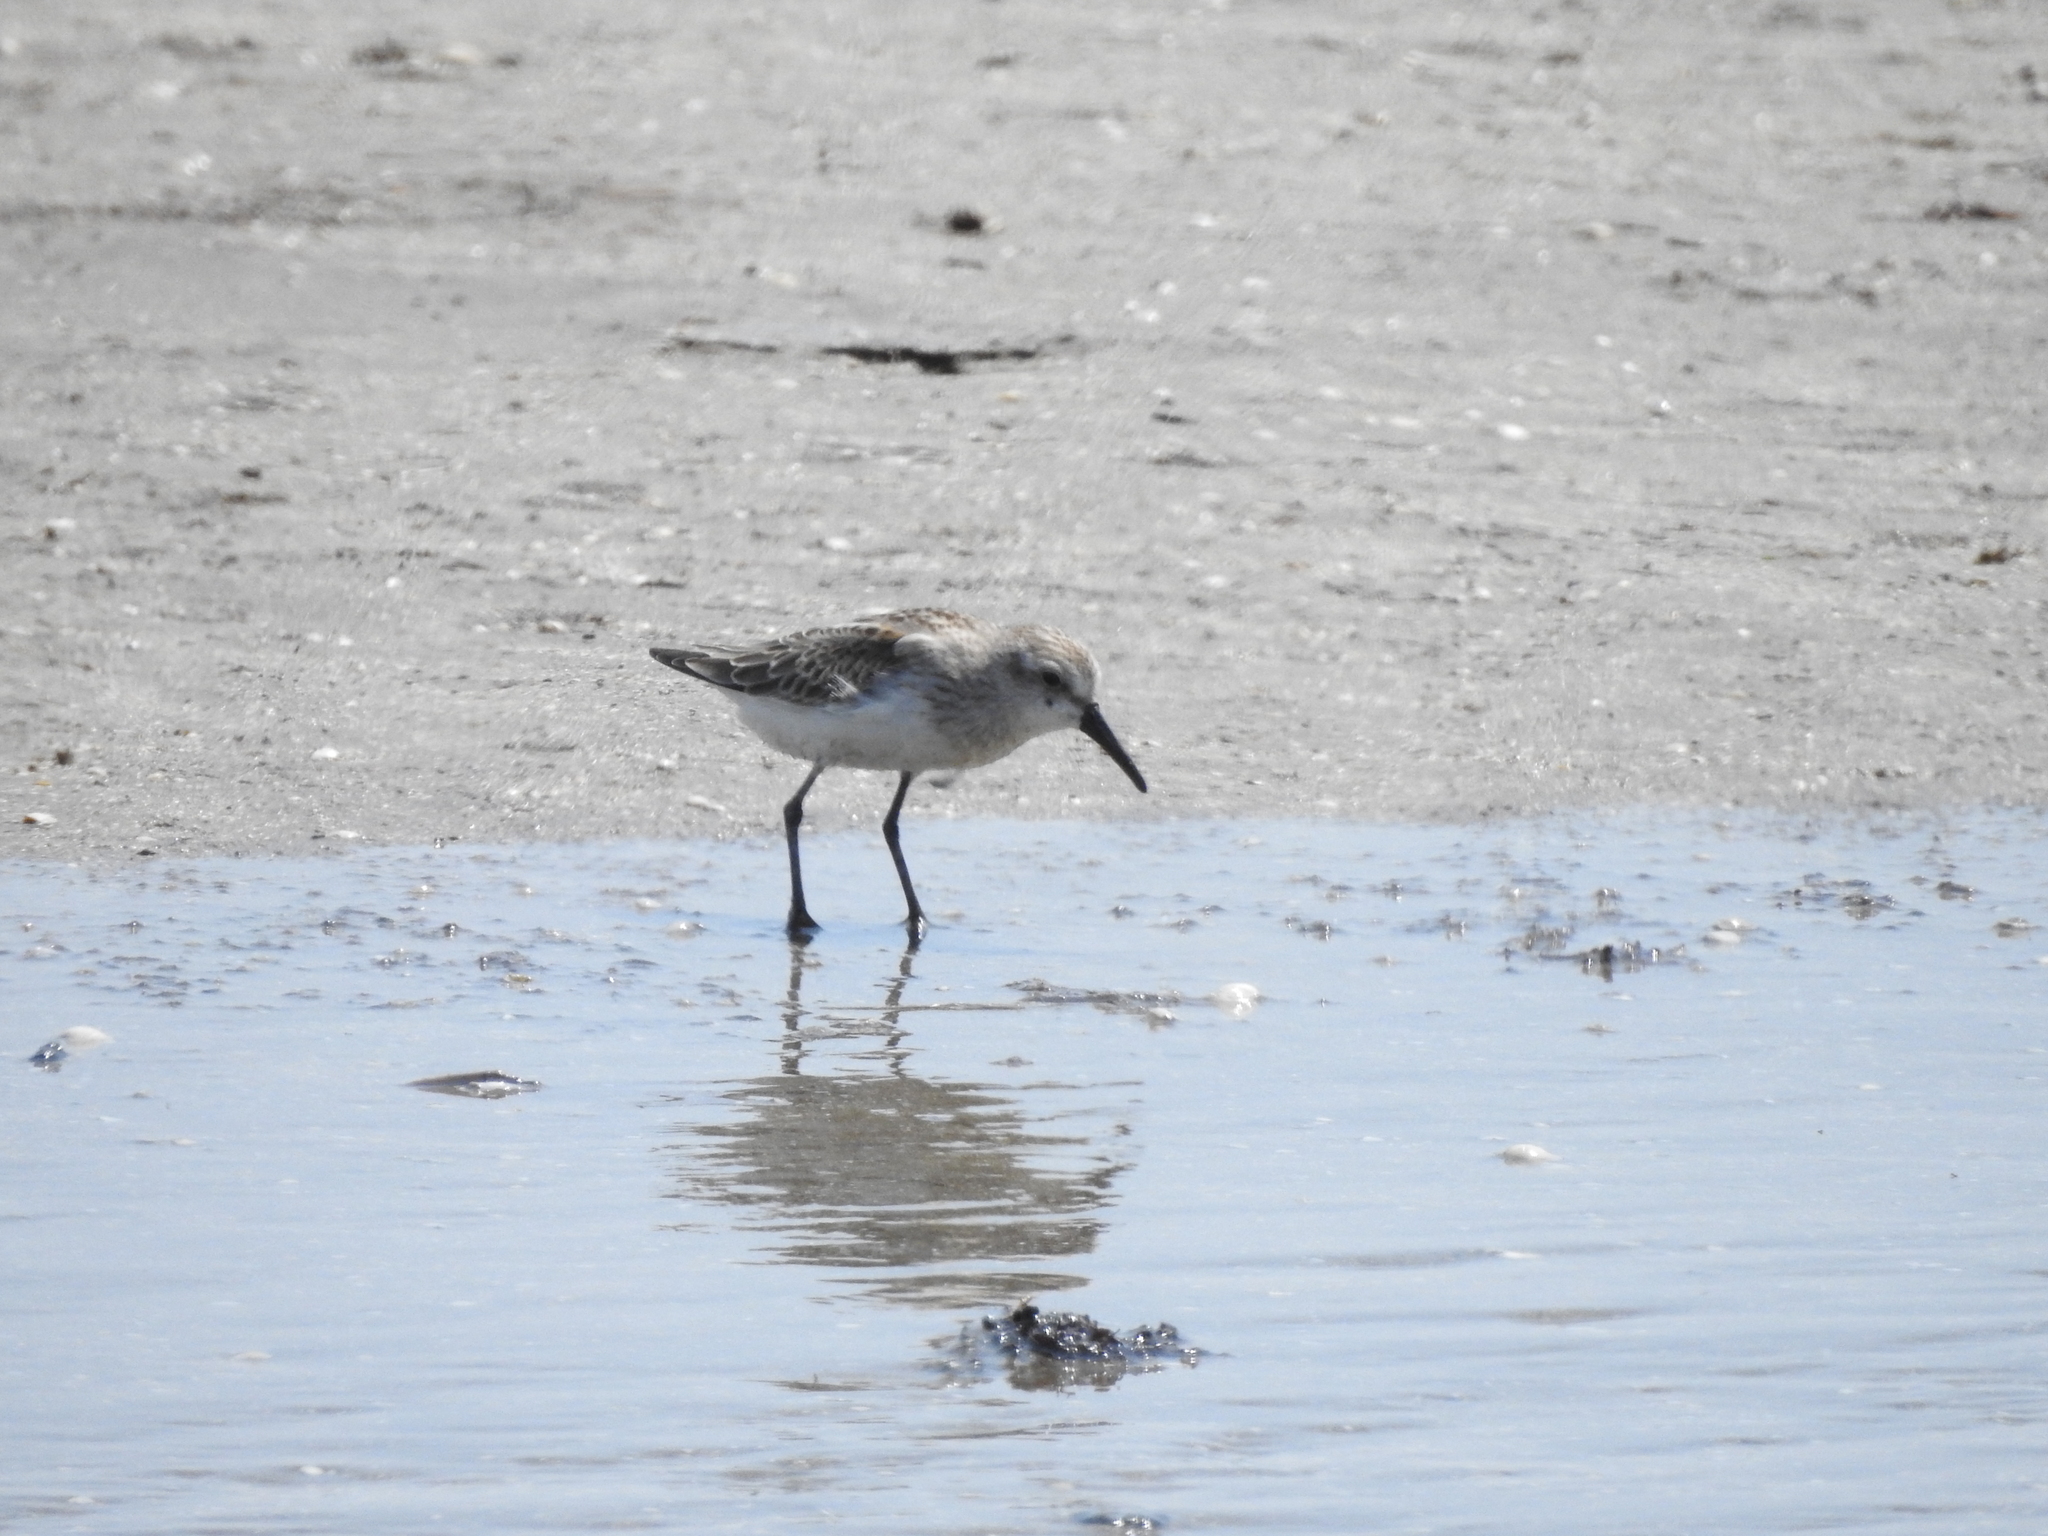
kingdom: Animalia
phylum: Chordata
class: Aves
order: Charadriiformes
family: Scolopacidae
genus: Calidris
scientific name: Calidris mauri
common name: Western sandpiper
